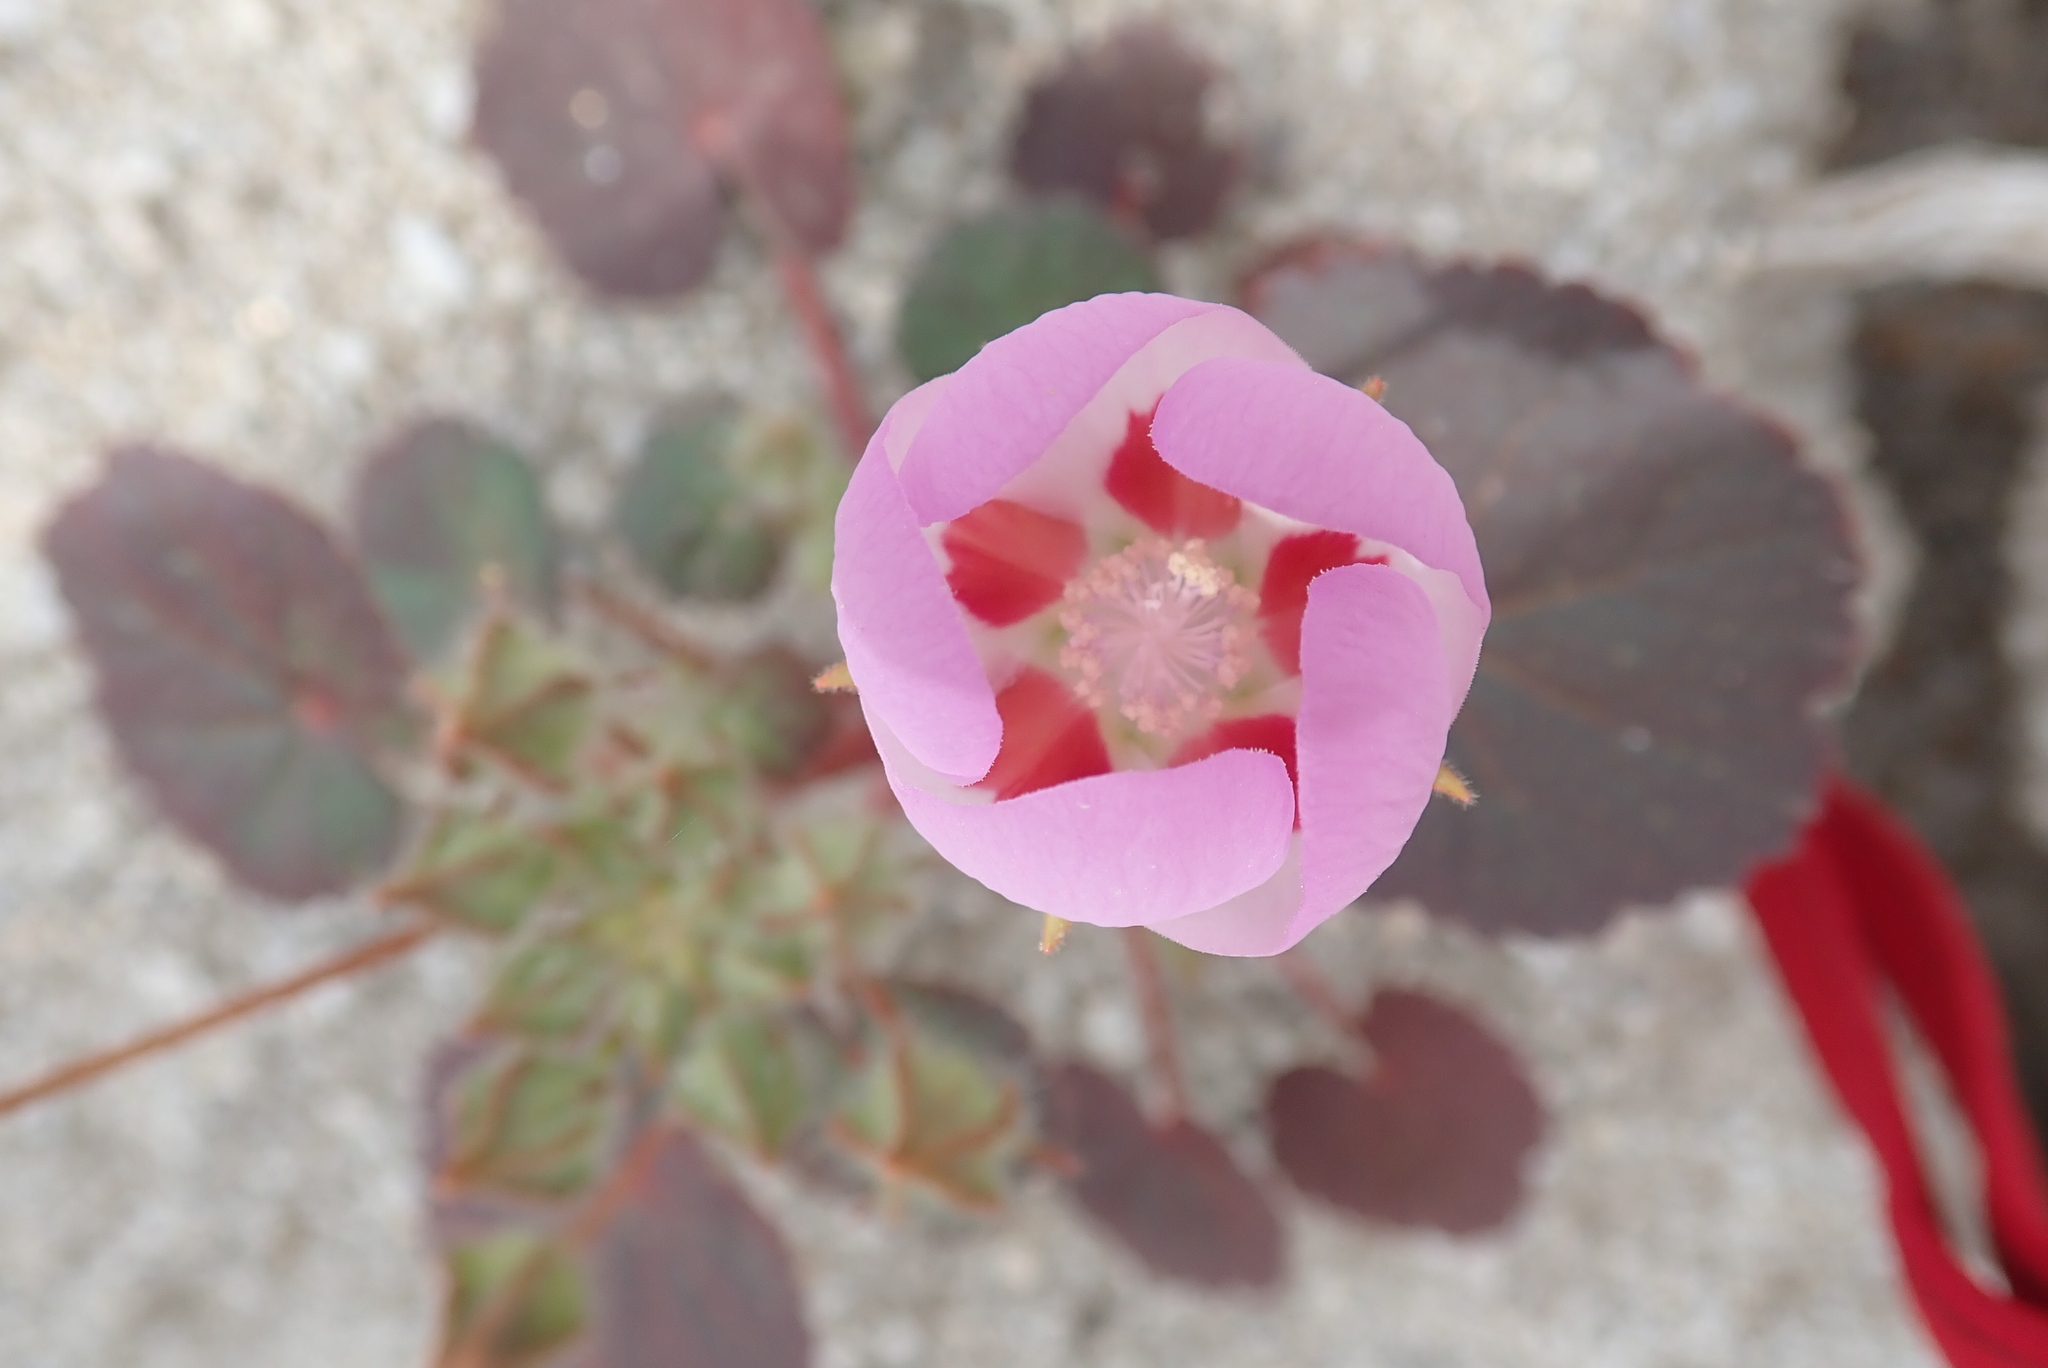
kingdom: Plantae
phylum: Tracheophyta
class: Magnoliopsida
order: Malvales
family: Malvaceae
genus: Eremalche
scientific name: Eremalche rotundifolia
